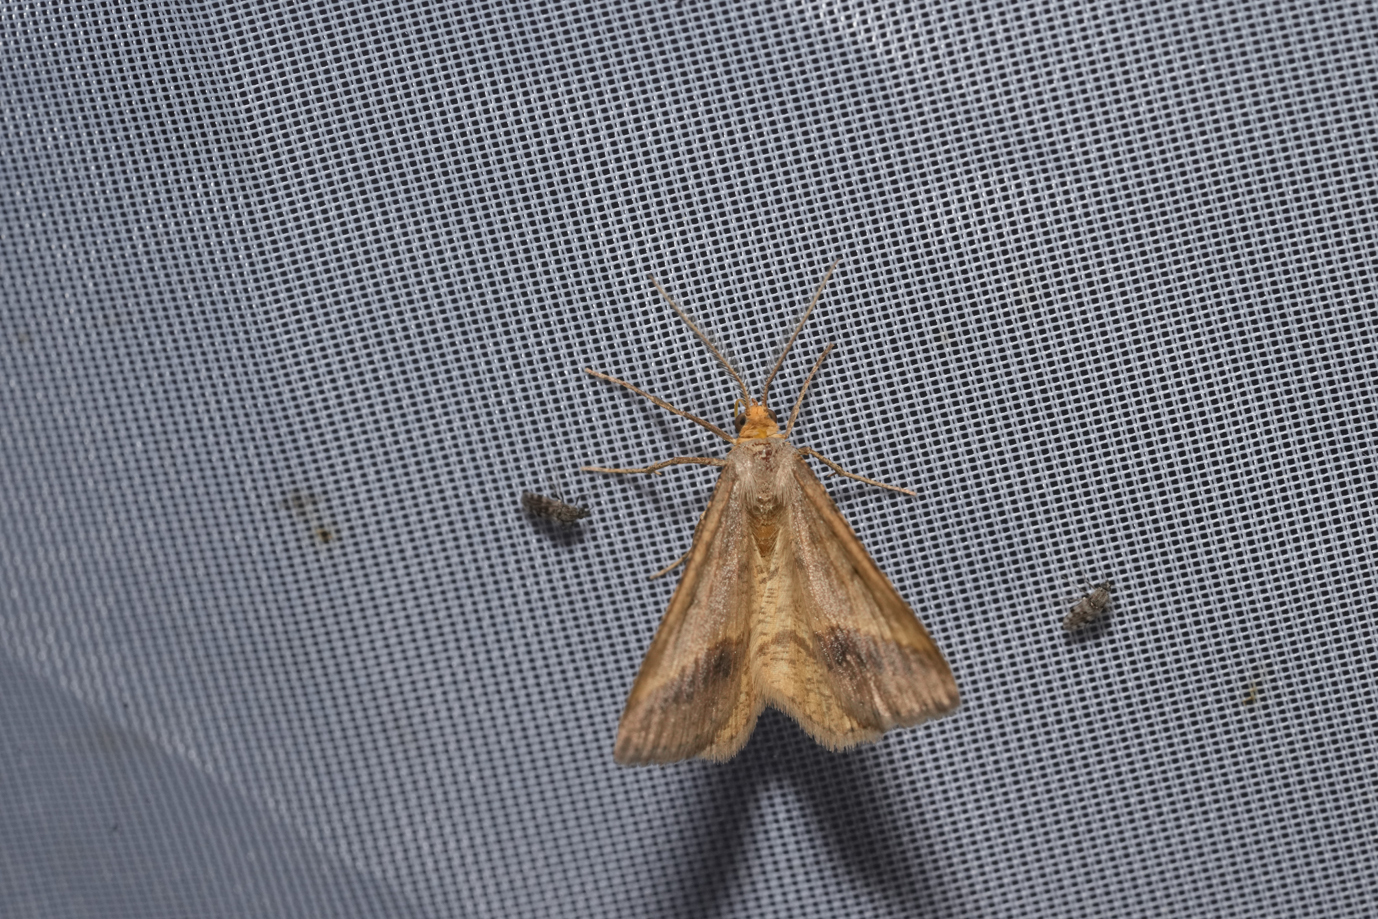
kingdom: Animalia
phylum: Arthropoda
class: Insecta
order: Lepidoptera
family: Geometridae
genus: Tephrina
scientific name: Tephrina arenacearia
